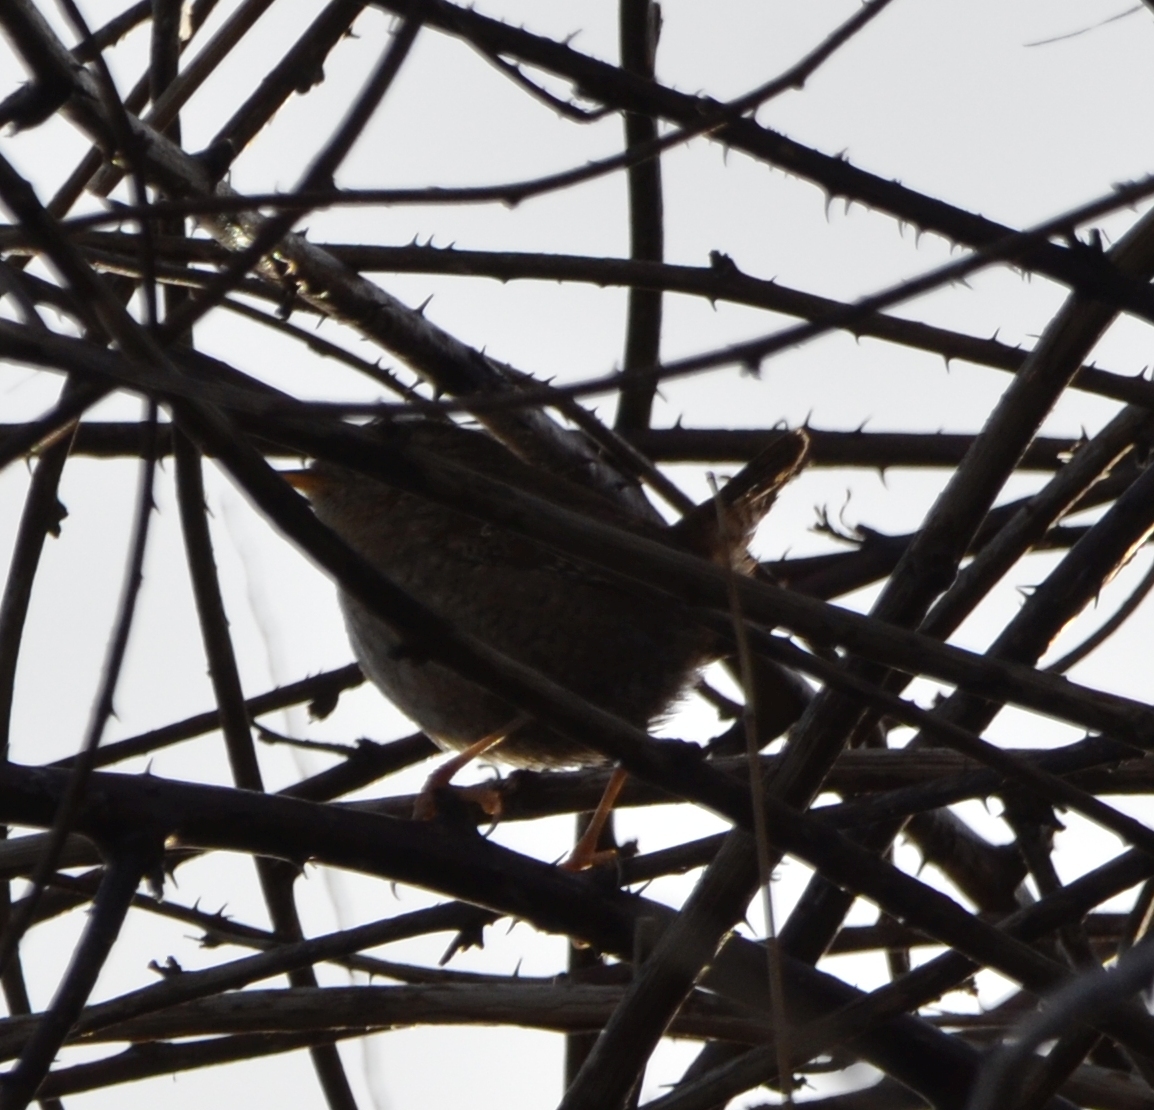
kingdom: Animalia
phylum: Chordata
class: Aves
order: Passeriformes
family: Troglodytidae
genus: Troglodytes
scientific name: Troglodytes troglodytes
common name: Eurasian wren
